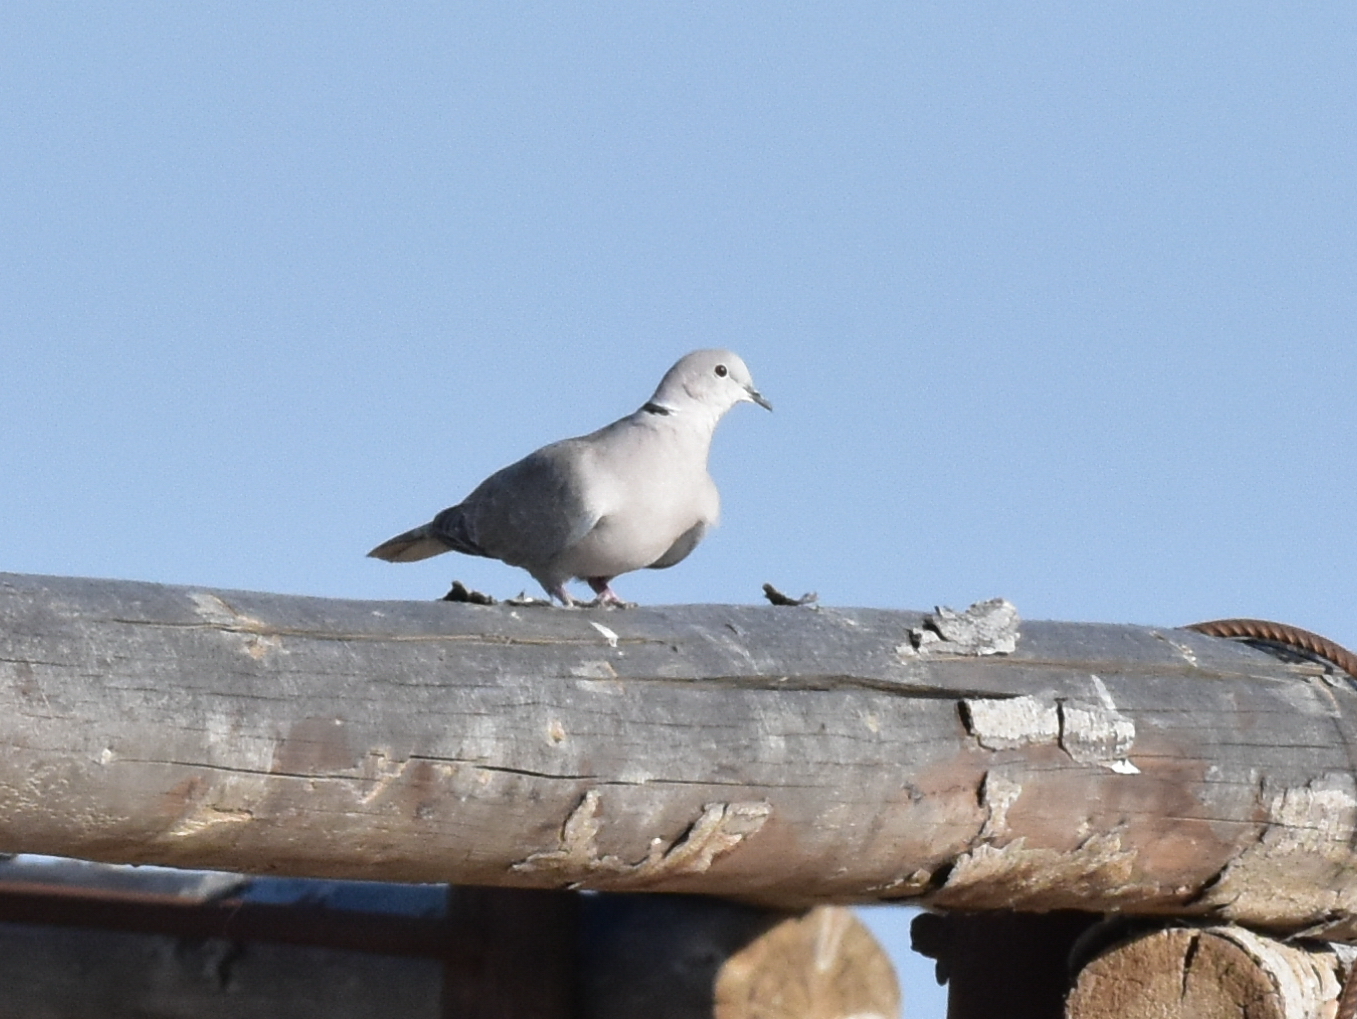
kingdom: Animalia
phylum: Chordata
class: Aves
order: Columbiformes
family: Columbidae
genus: Streptopelia
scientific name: Streptopelia decaocto
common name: Eurasian collared dove
